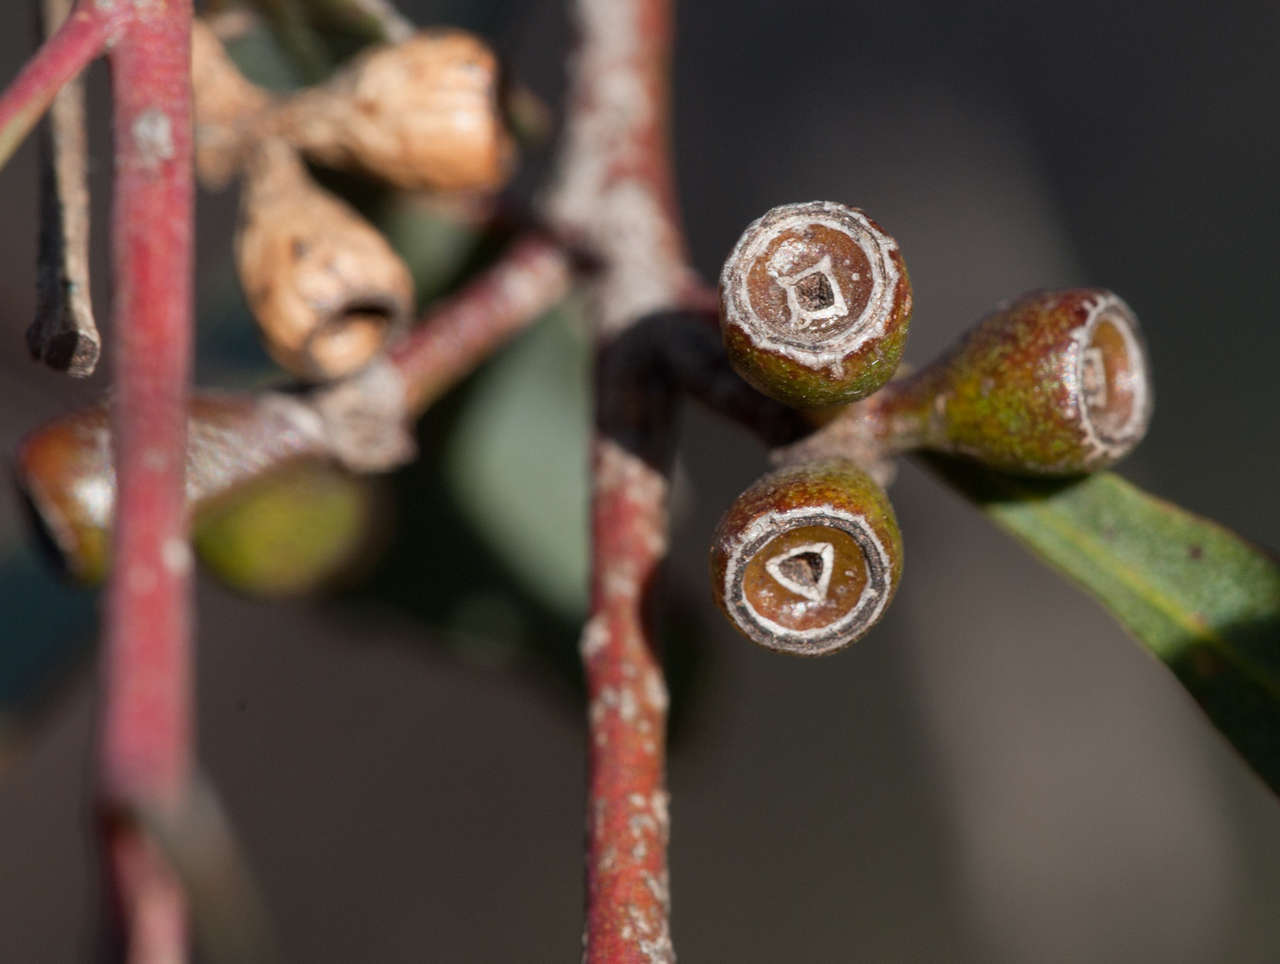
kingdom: Plantae
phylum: Tracheophyta
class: Magnoliopsida
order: Myrtales
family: Myrtaceae
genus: Eucalyptus
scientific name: Eucalyptus polybractea
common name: Blue mallee
